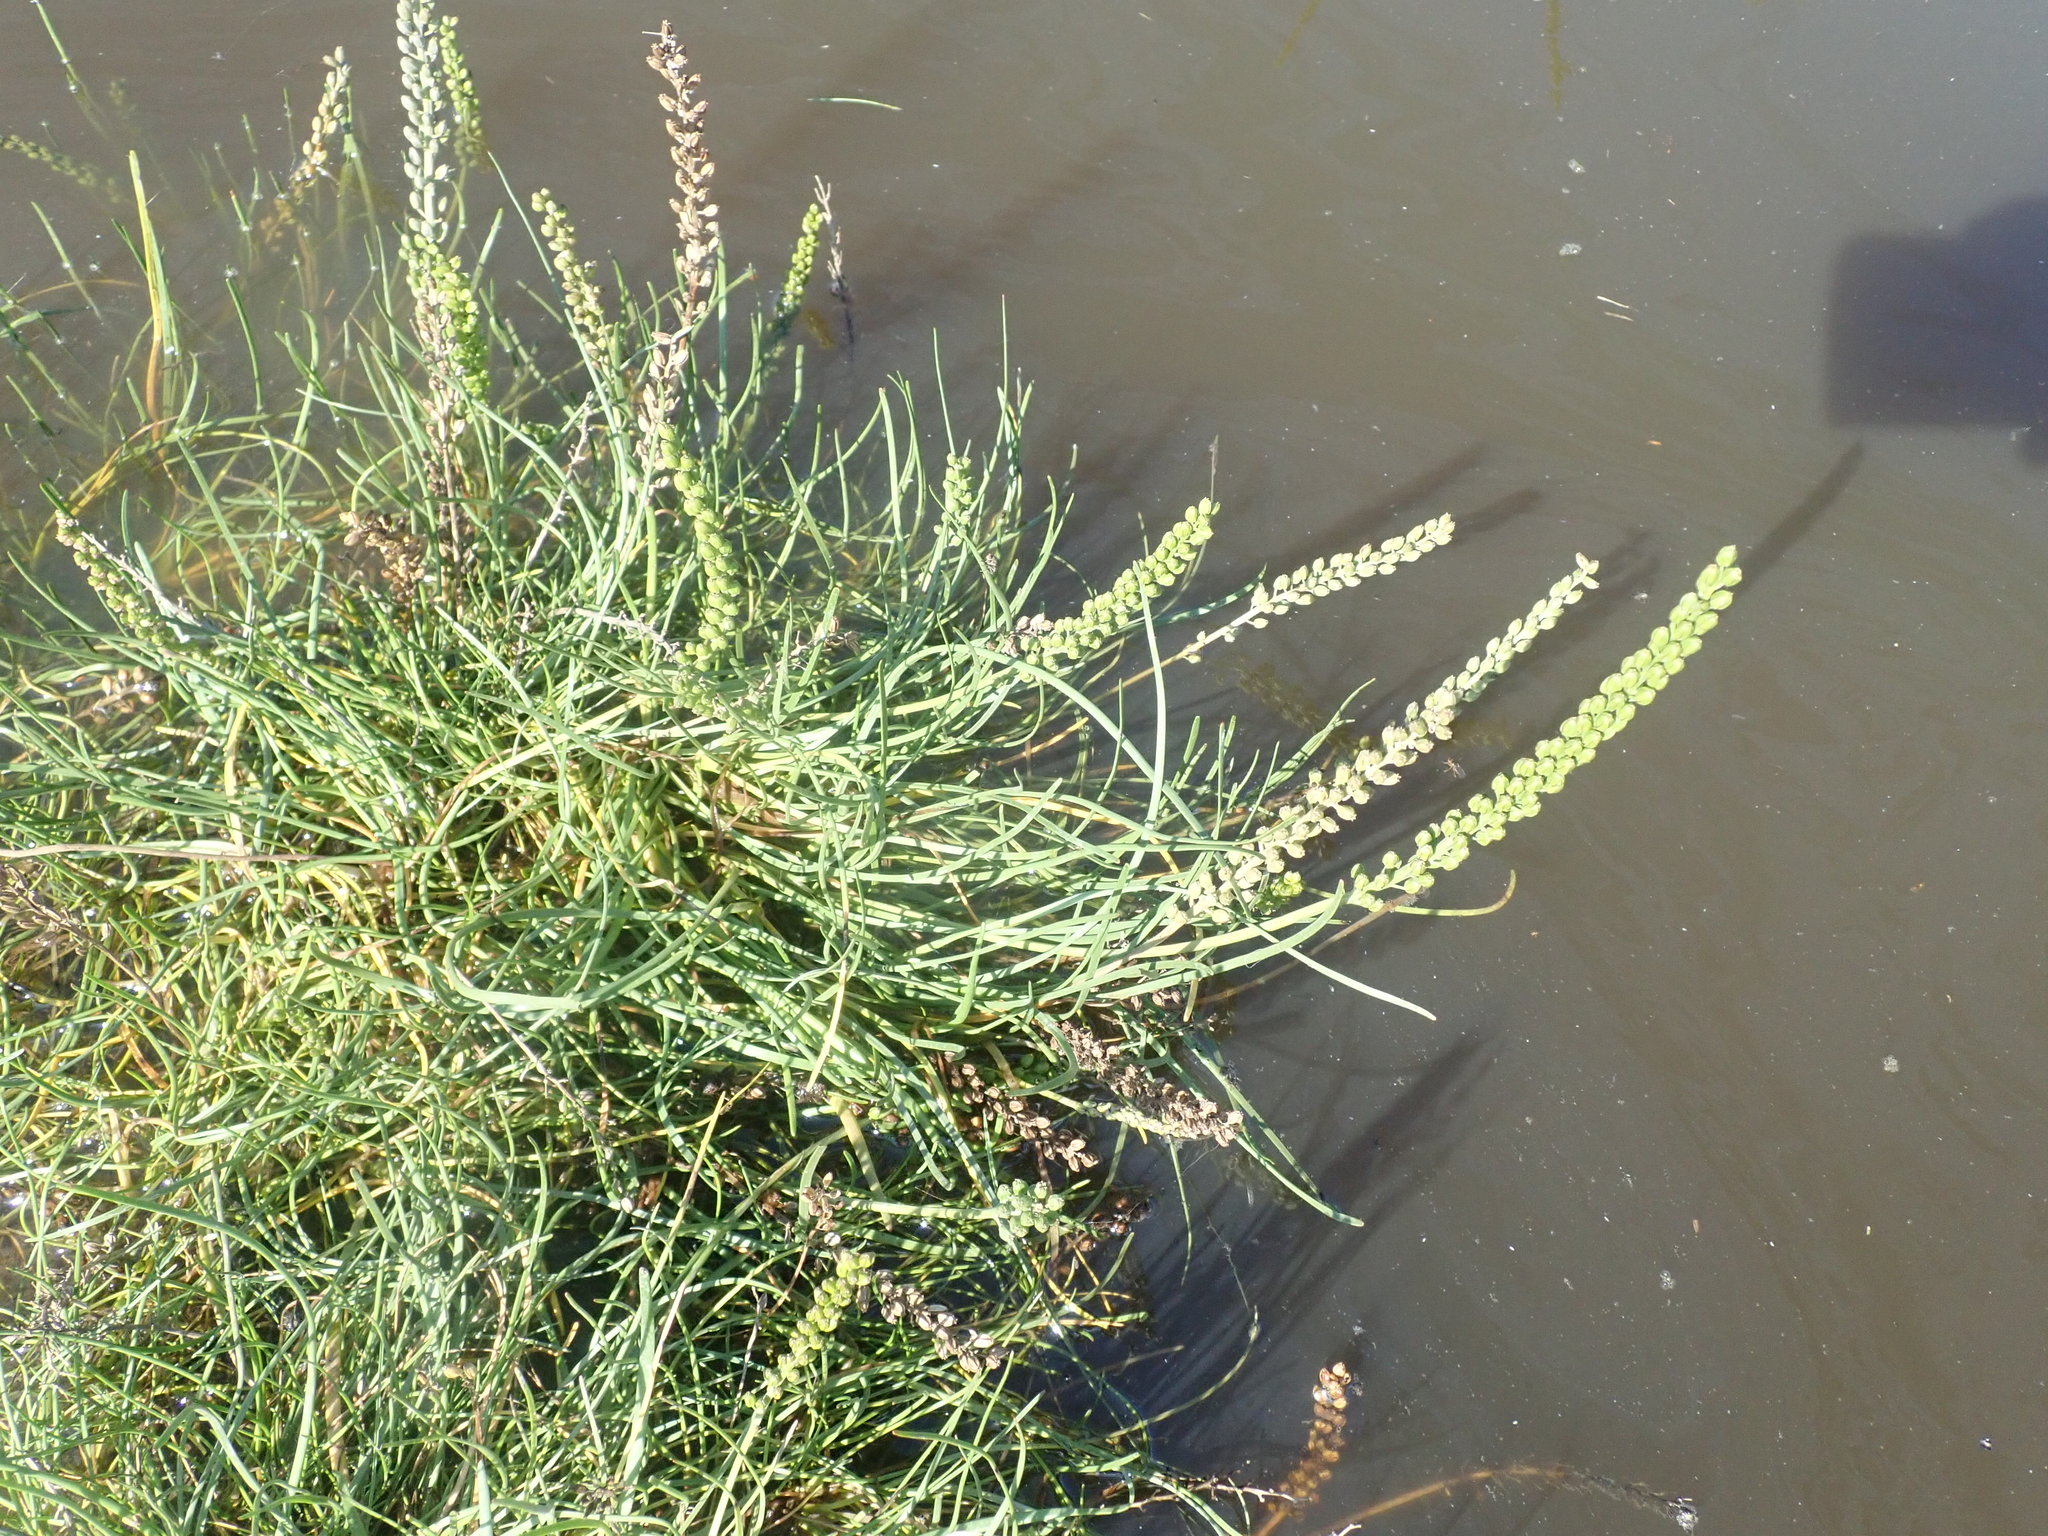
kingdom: Plantae
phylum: Tracheophyta
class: Liliopsida
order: Alismatales
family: Juncaginaceae
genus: Triglochin
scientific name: Triglochin maritima
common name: Sea arrowgrass
